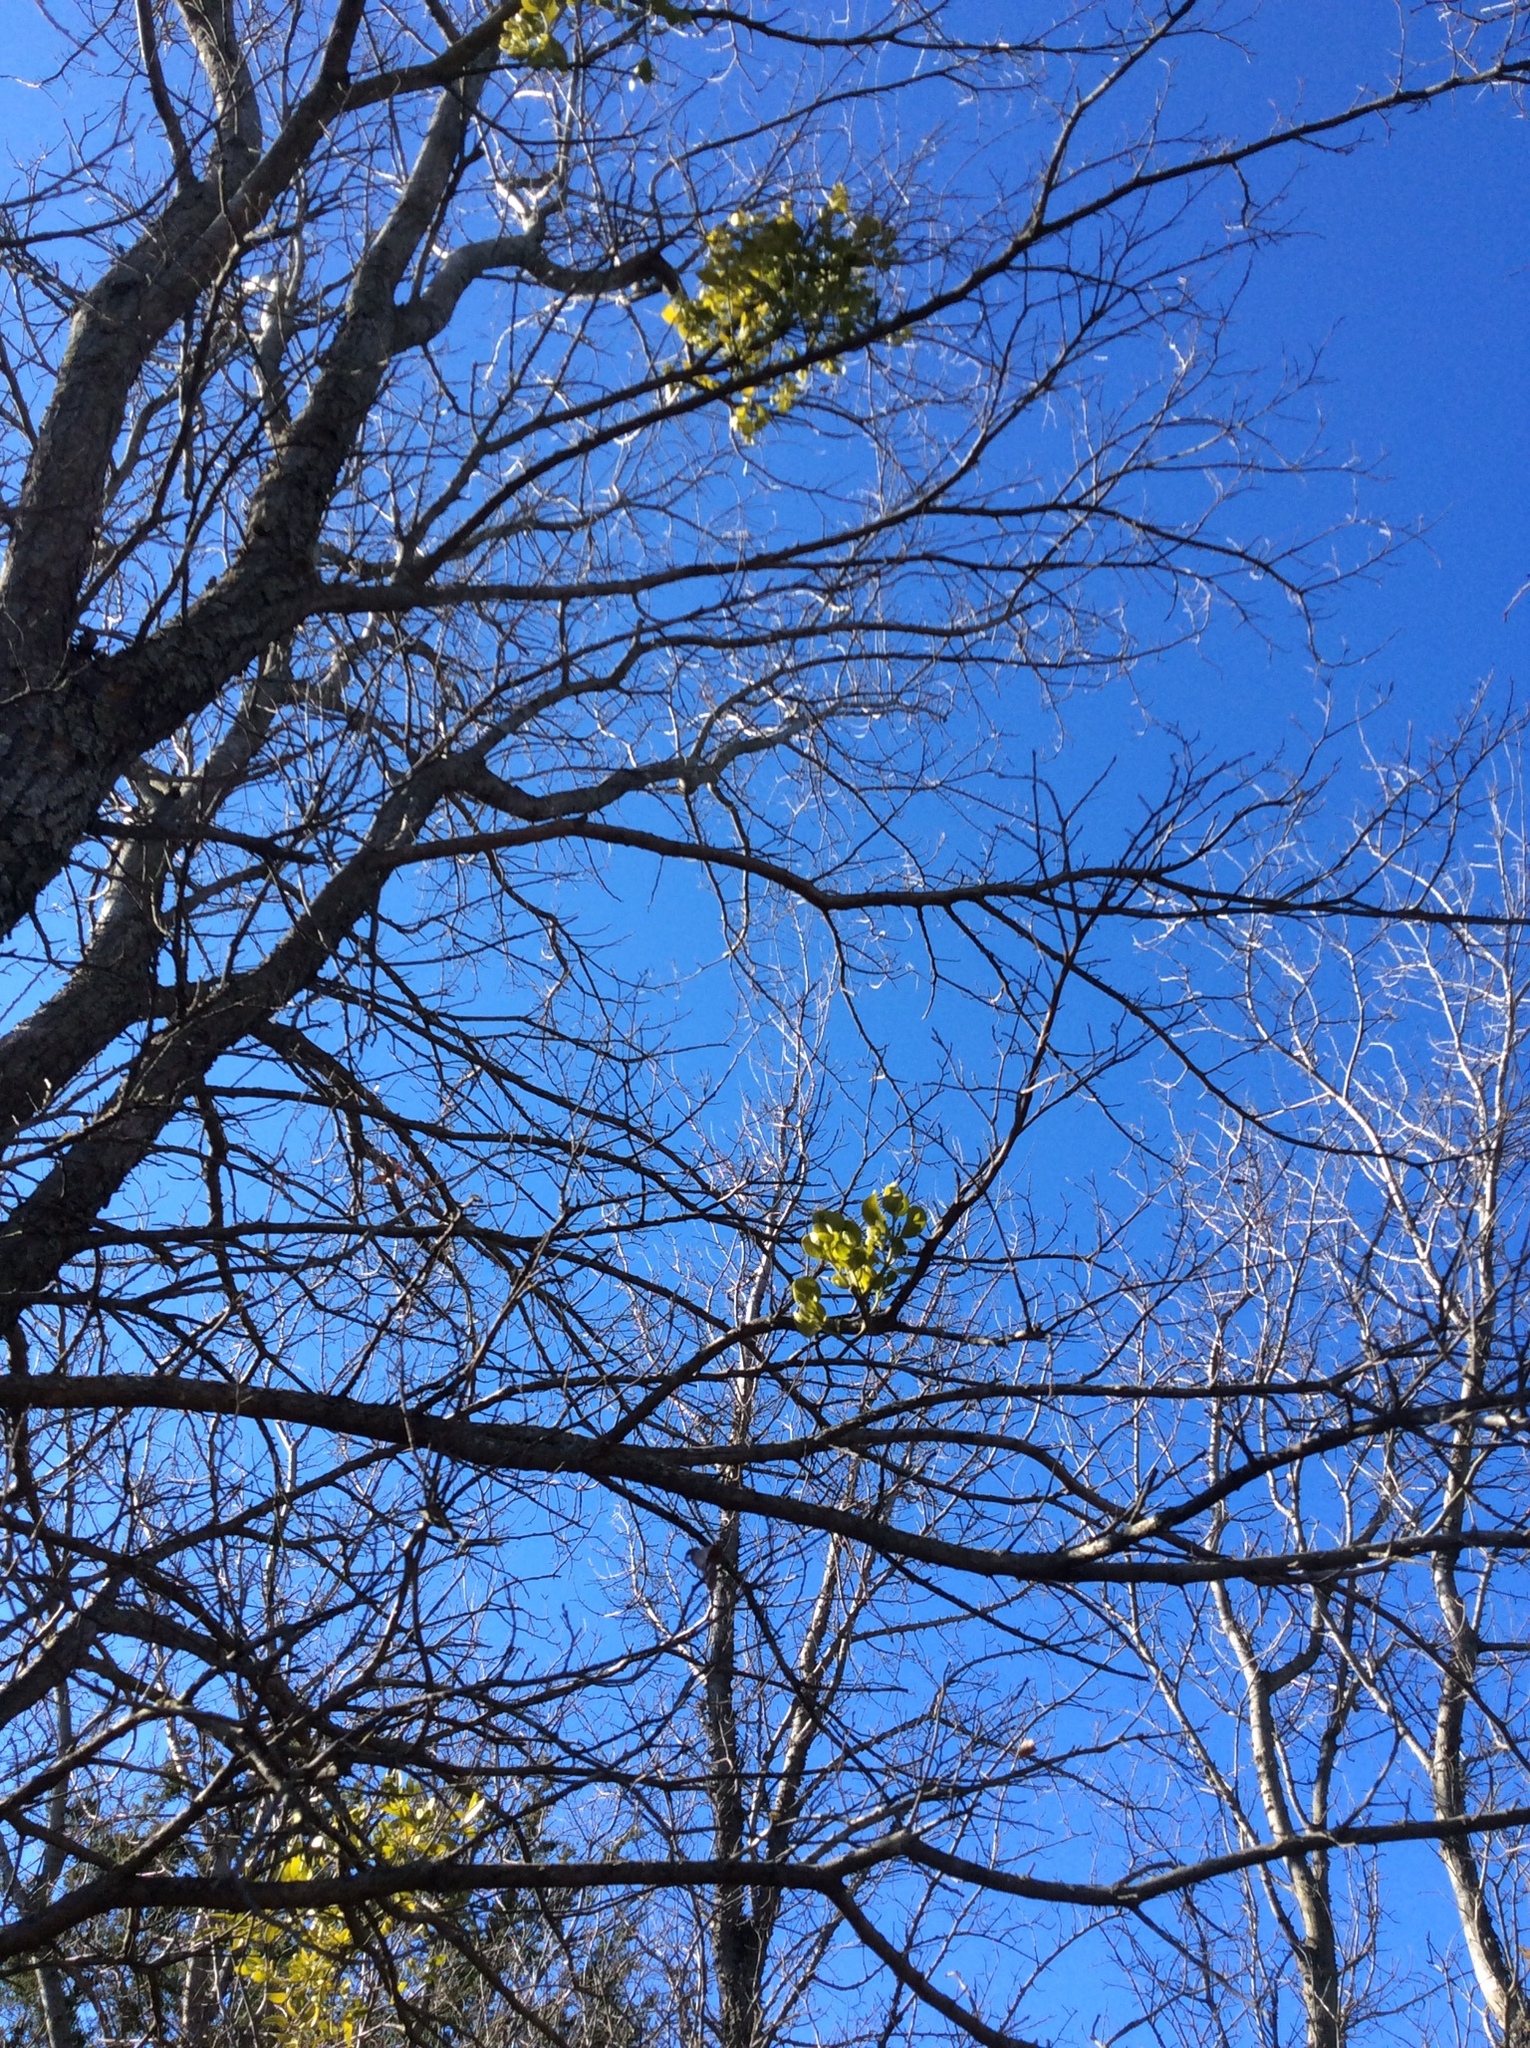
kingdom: Plantae
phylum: Tracheophyta
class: Magnoliopsida
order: Santalales
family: Viscaceae
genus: Phoradendron
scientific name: Phoradendron leucarpum
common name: Pacific mistletoe
